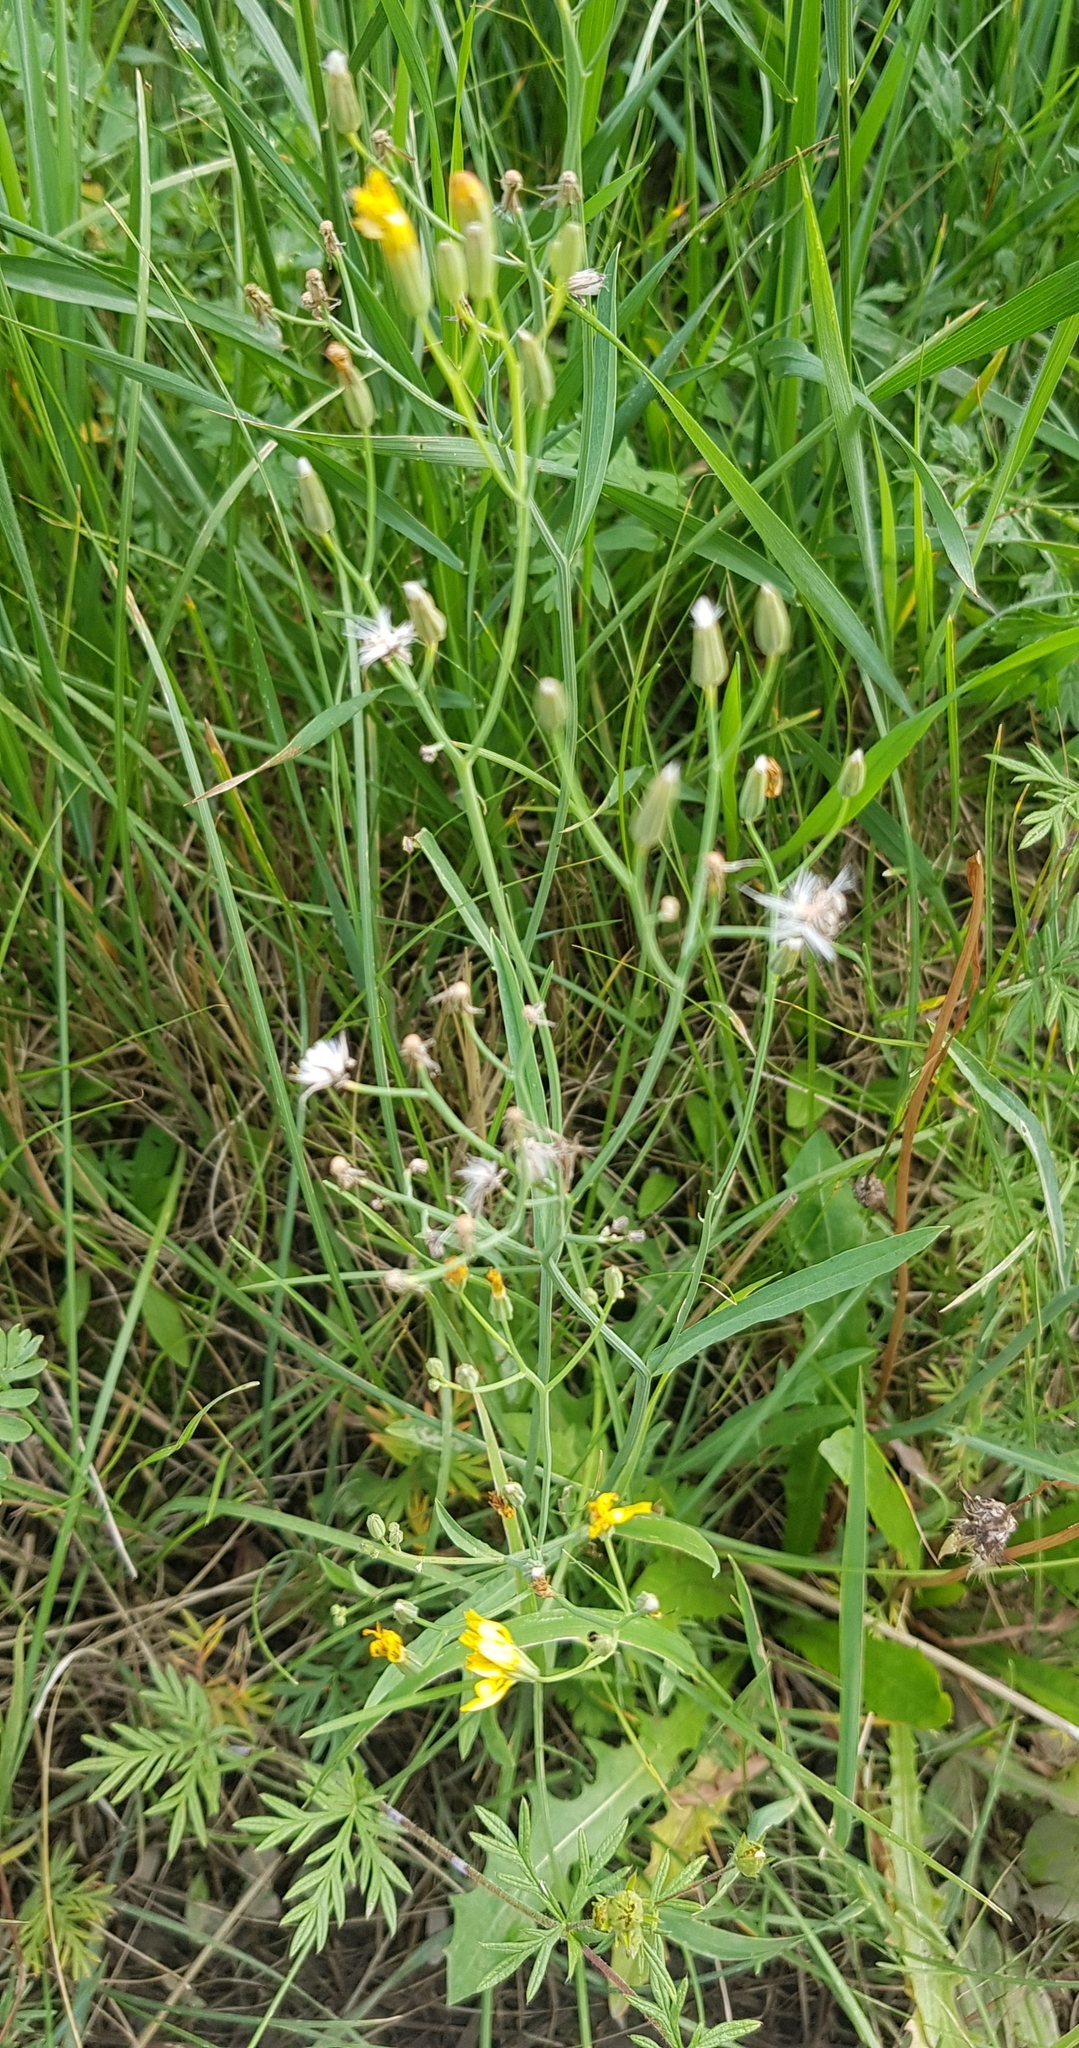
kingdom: Plantae
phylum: Tracheophyta
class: Magnoliopsida
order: Asterales
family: Asteraceae
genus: Crepis
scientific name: Crepis tectorum
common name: Narrow-leaved hawk's-beard
